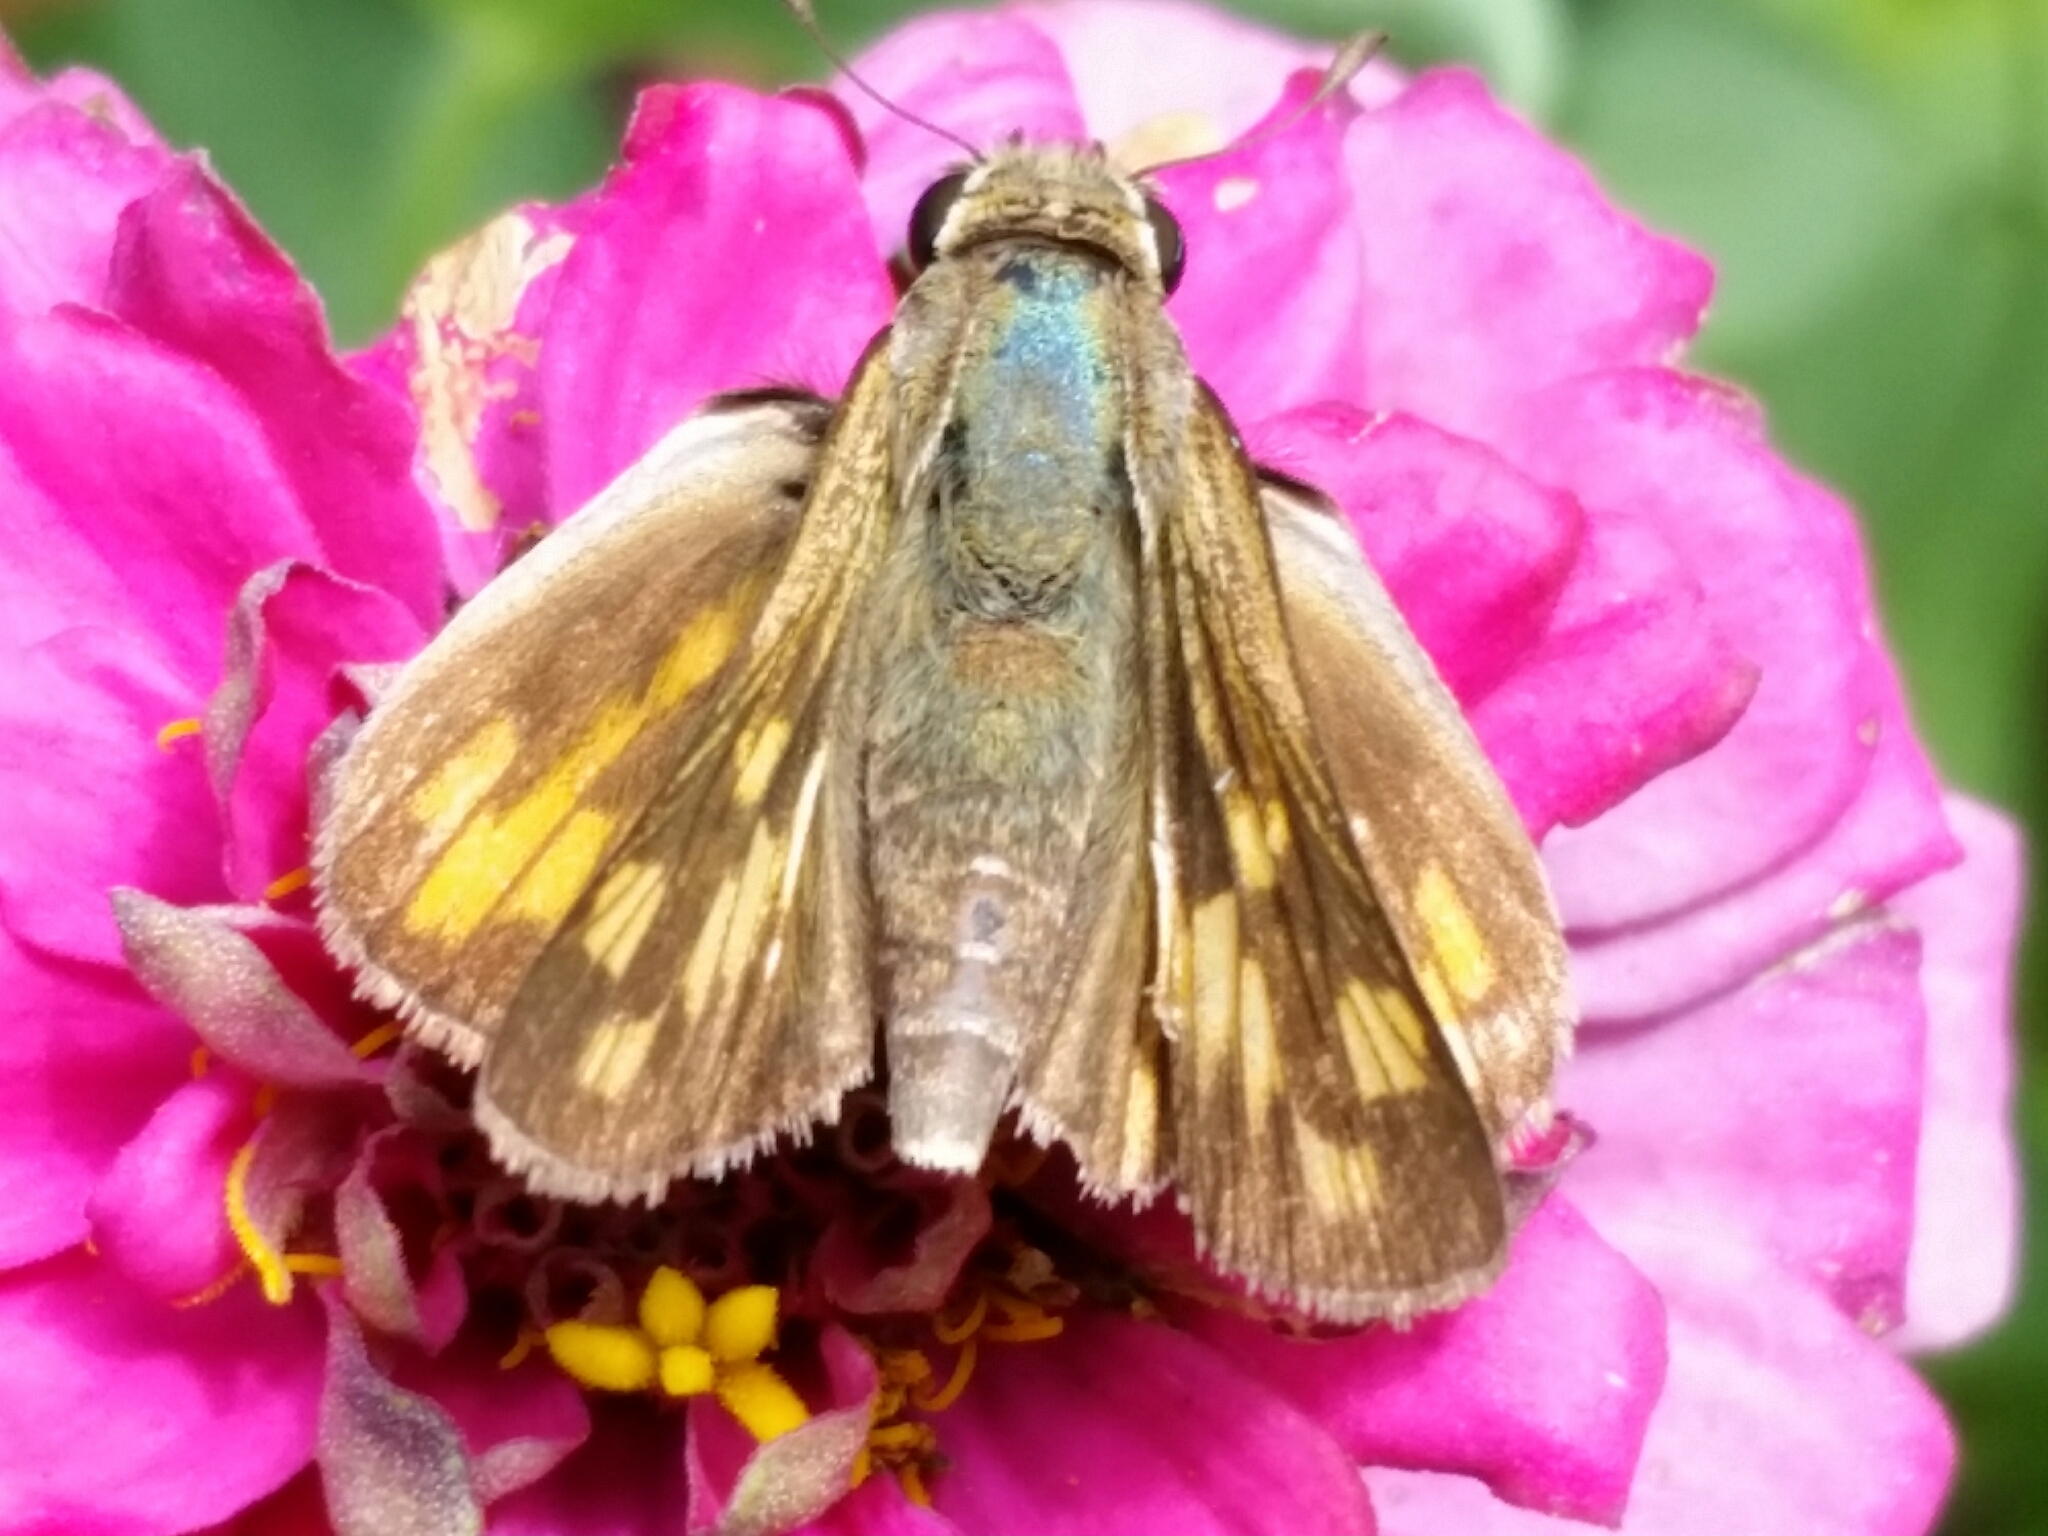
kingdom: Animalia
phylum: Arthropoda
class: Insecta
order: Lepidoptera
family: Hesperiidae
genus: Hylephila
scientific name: Hylephila phyleus
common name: Fiery skipper
